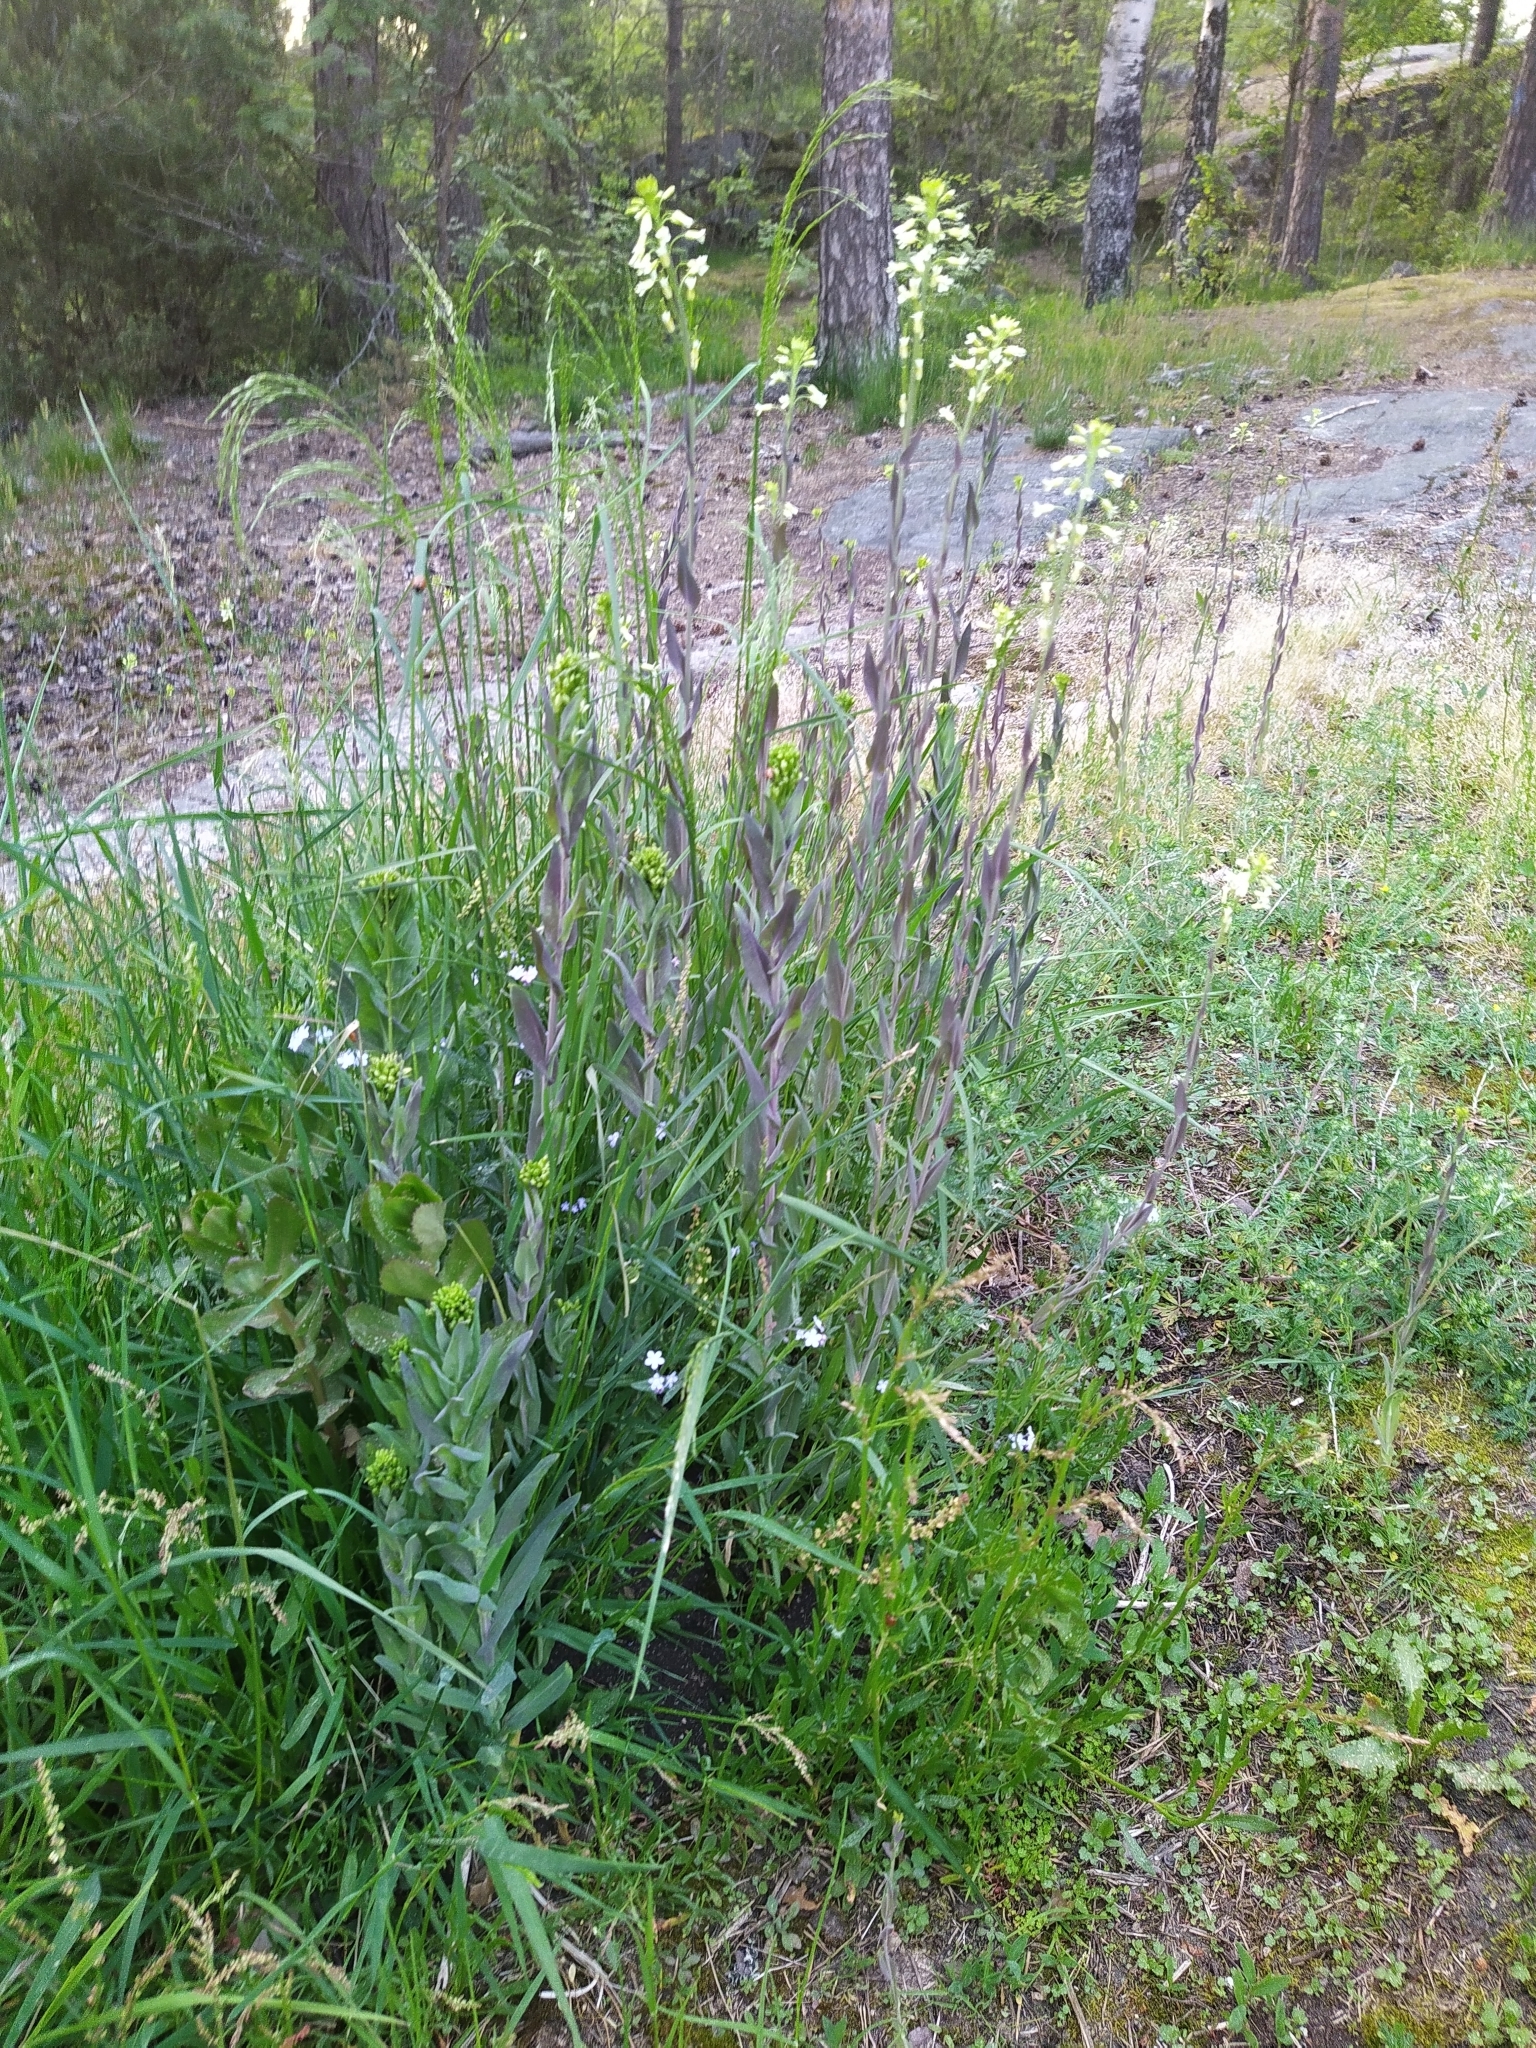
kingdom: Plantae
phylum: Tracheophyta
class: Magnoliopsida
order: Brassicales
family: Brassicaceae
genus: Turritis
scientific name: Turritis glabra
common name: Tower rockcress
